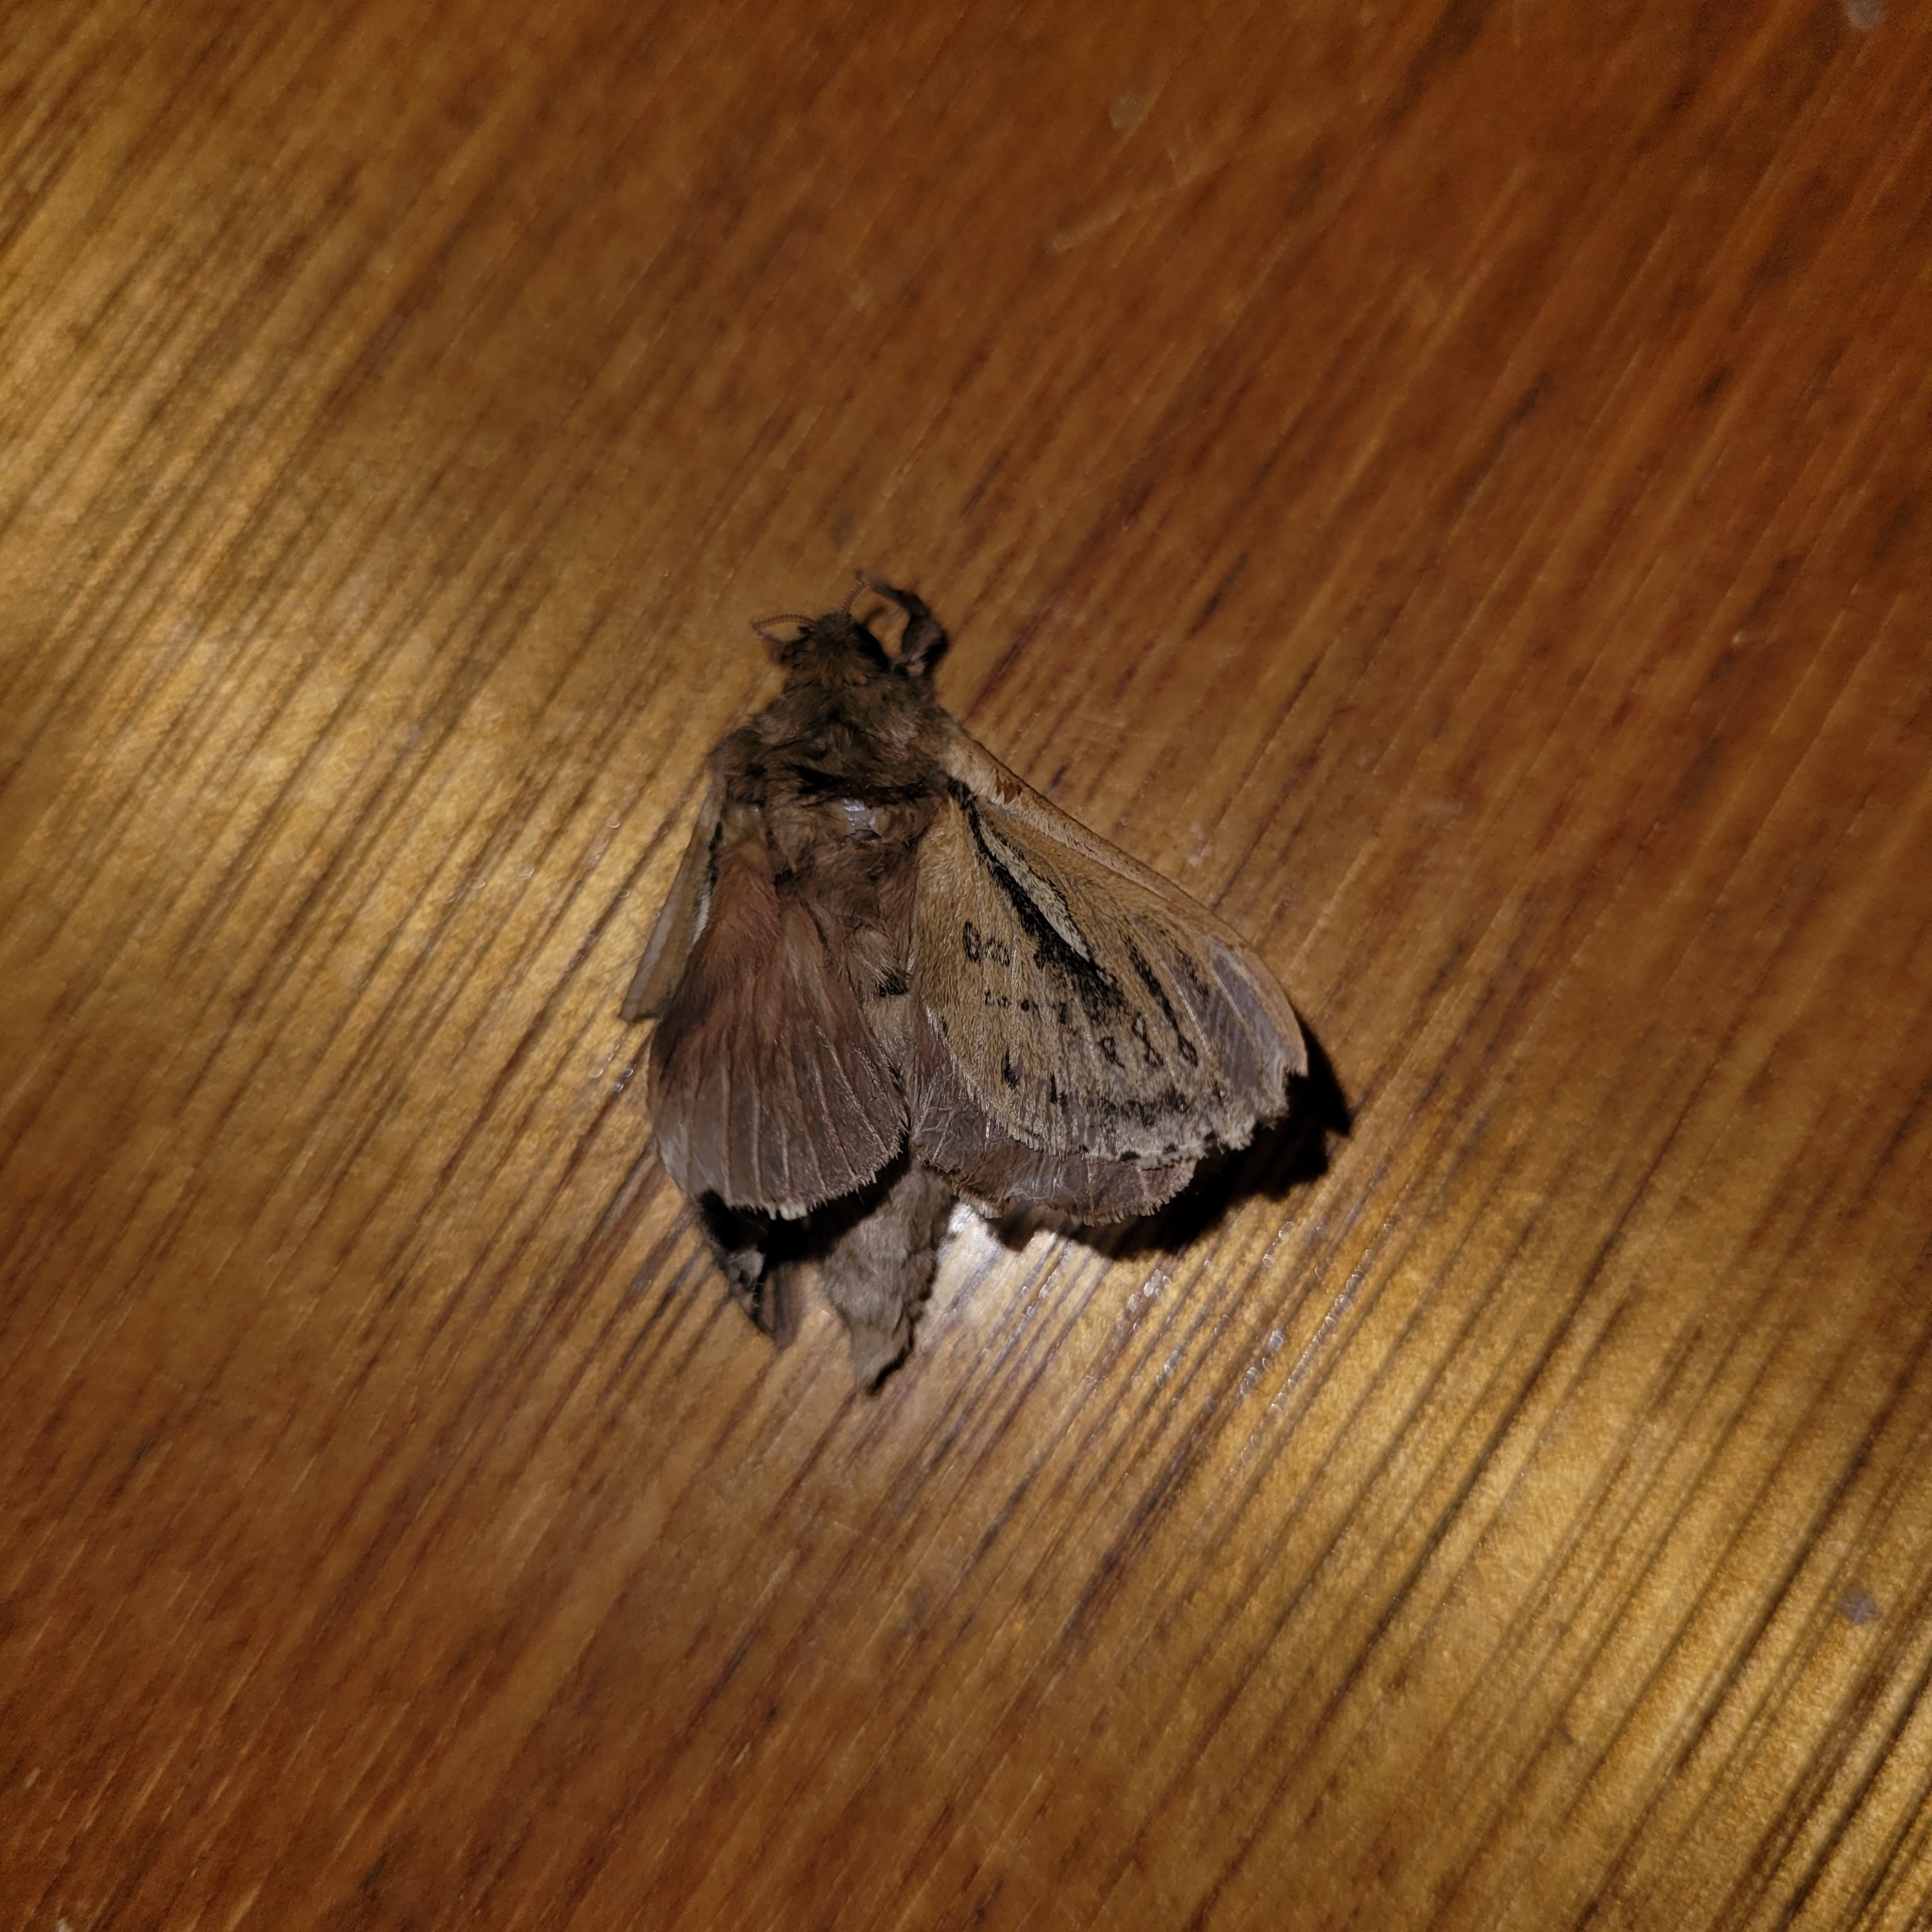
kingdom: Animalia
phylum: Arthropoda
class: Insecta
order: Lepidoptera
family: Hepialidae
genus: Wiseana
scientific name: Wiseana umbraculatus
